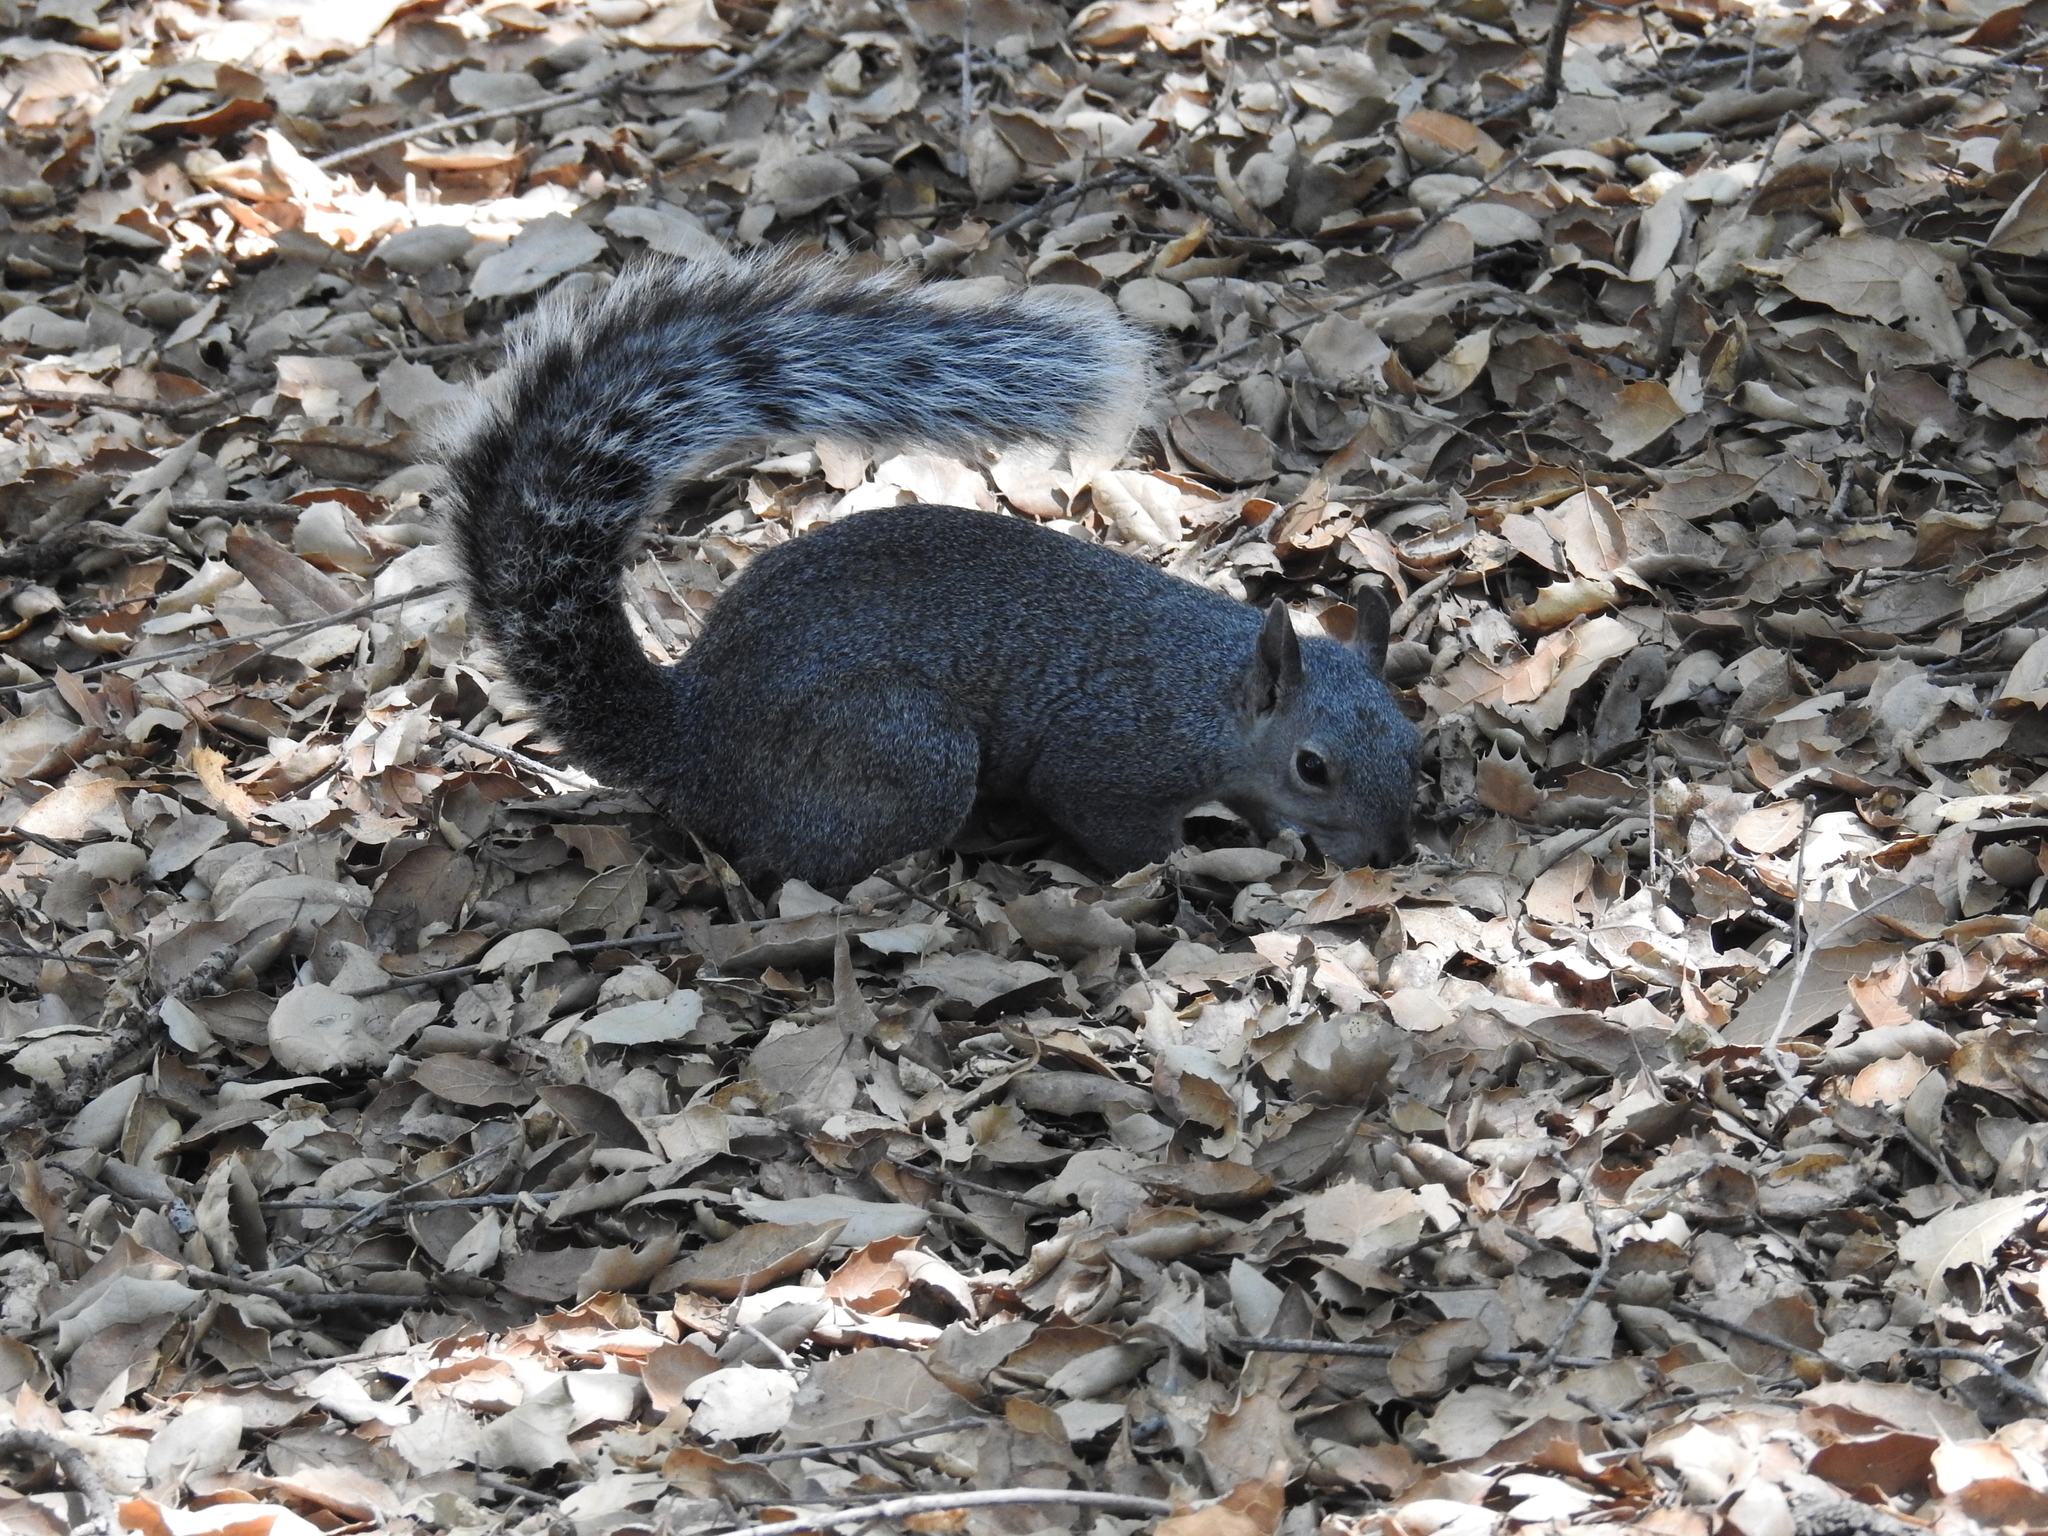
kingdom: Animalia
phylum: Chordata
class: Mammalia
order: Rodentia
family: Sciuridae
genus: Sciurus
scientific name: Sciurus griseus
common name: Western gray squirrel
